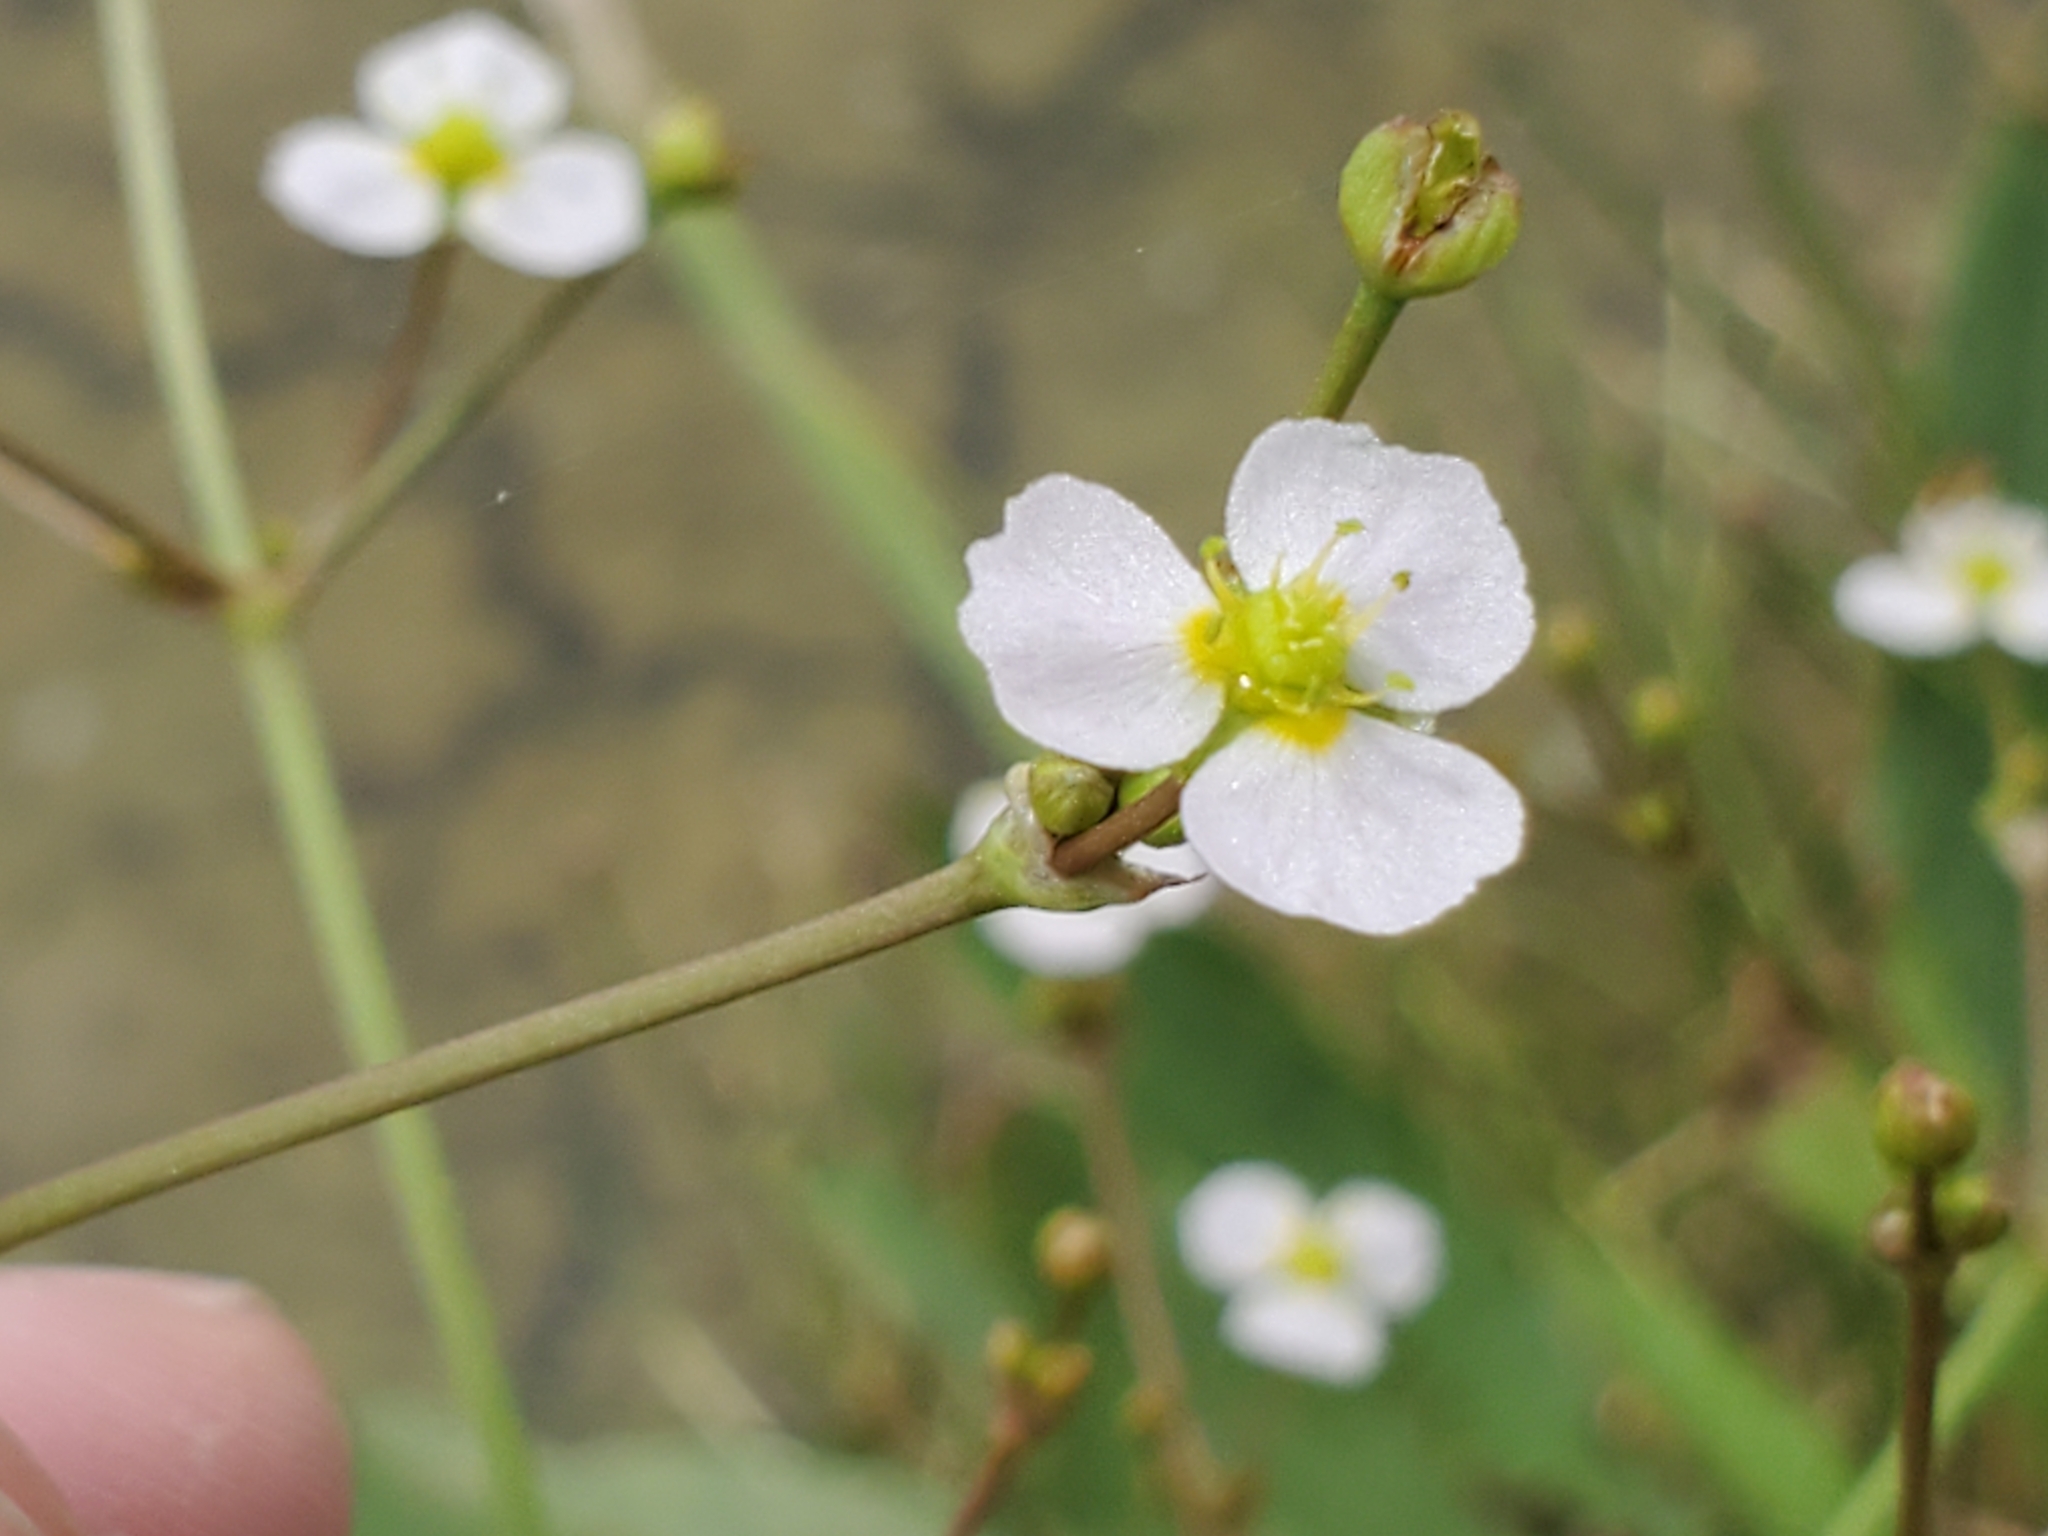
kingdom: Plantae
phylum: Tracheophyta
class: Liliopsida
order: Alismatales
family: Alismataceae
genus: Alisma
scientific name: Alisma lanceolatum
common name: Narrow-leaved water-plantain
